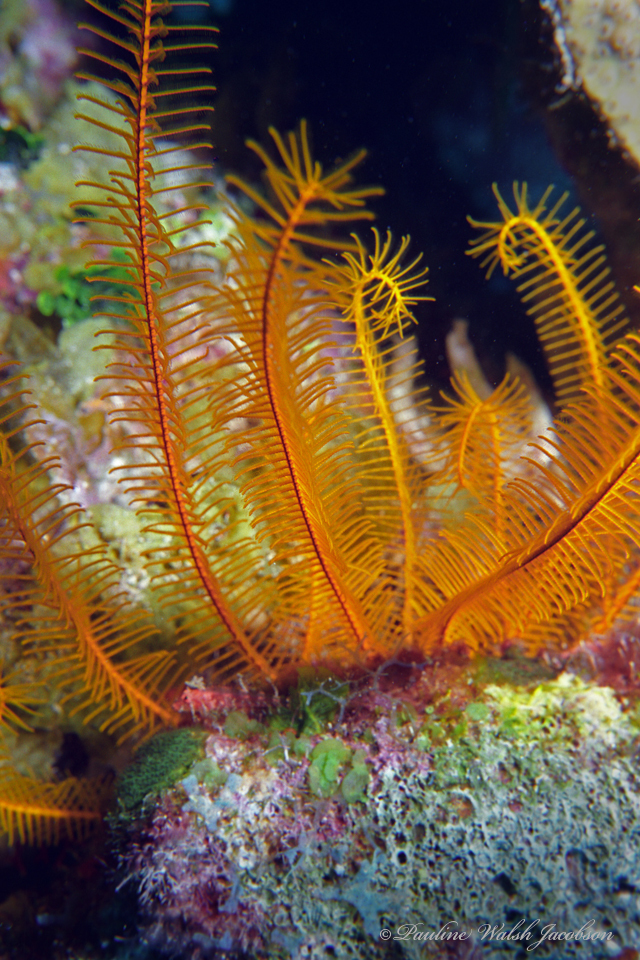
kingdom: Animalia
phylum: Echinodermata
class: Crinoidea
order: Comatulida
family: Comatulidae
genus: Davidaster
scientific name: Davidaster rubiginosus
